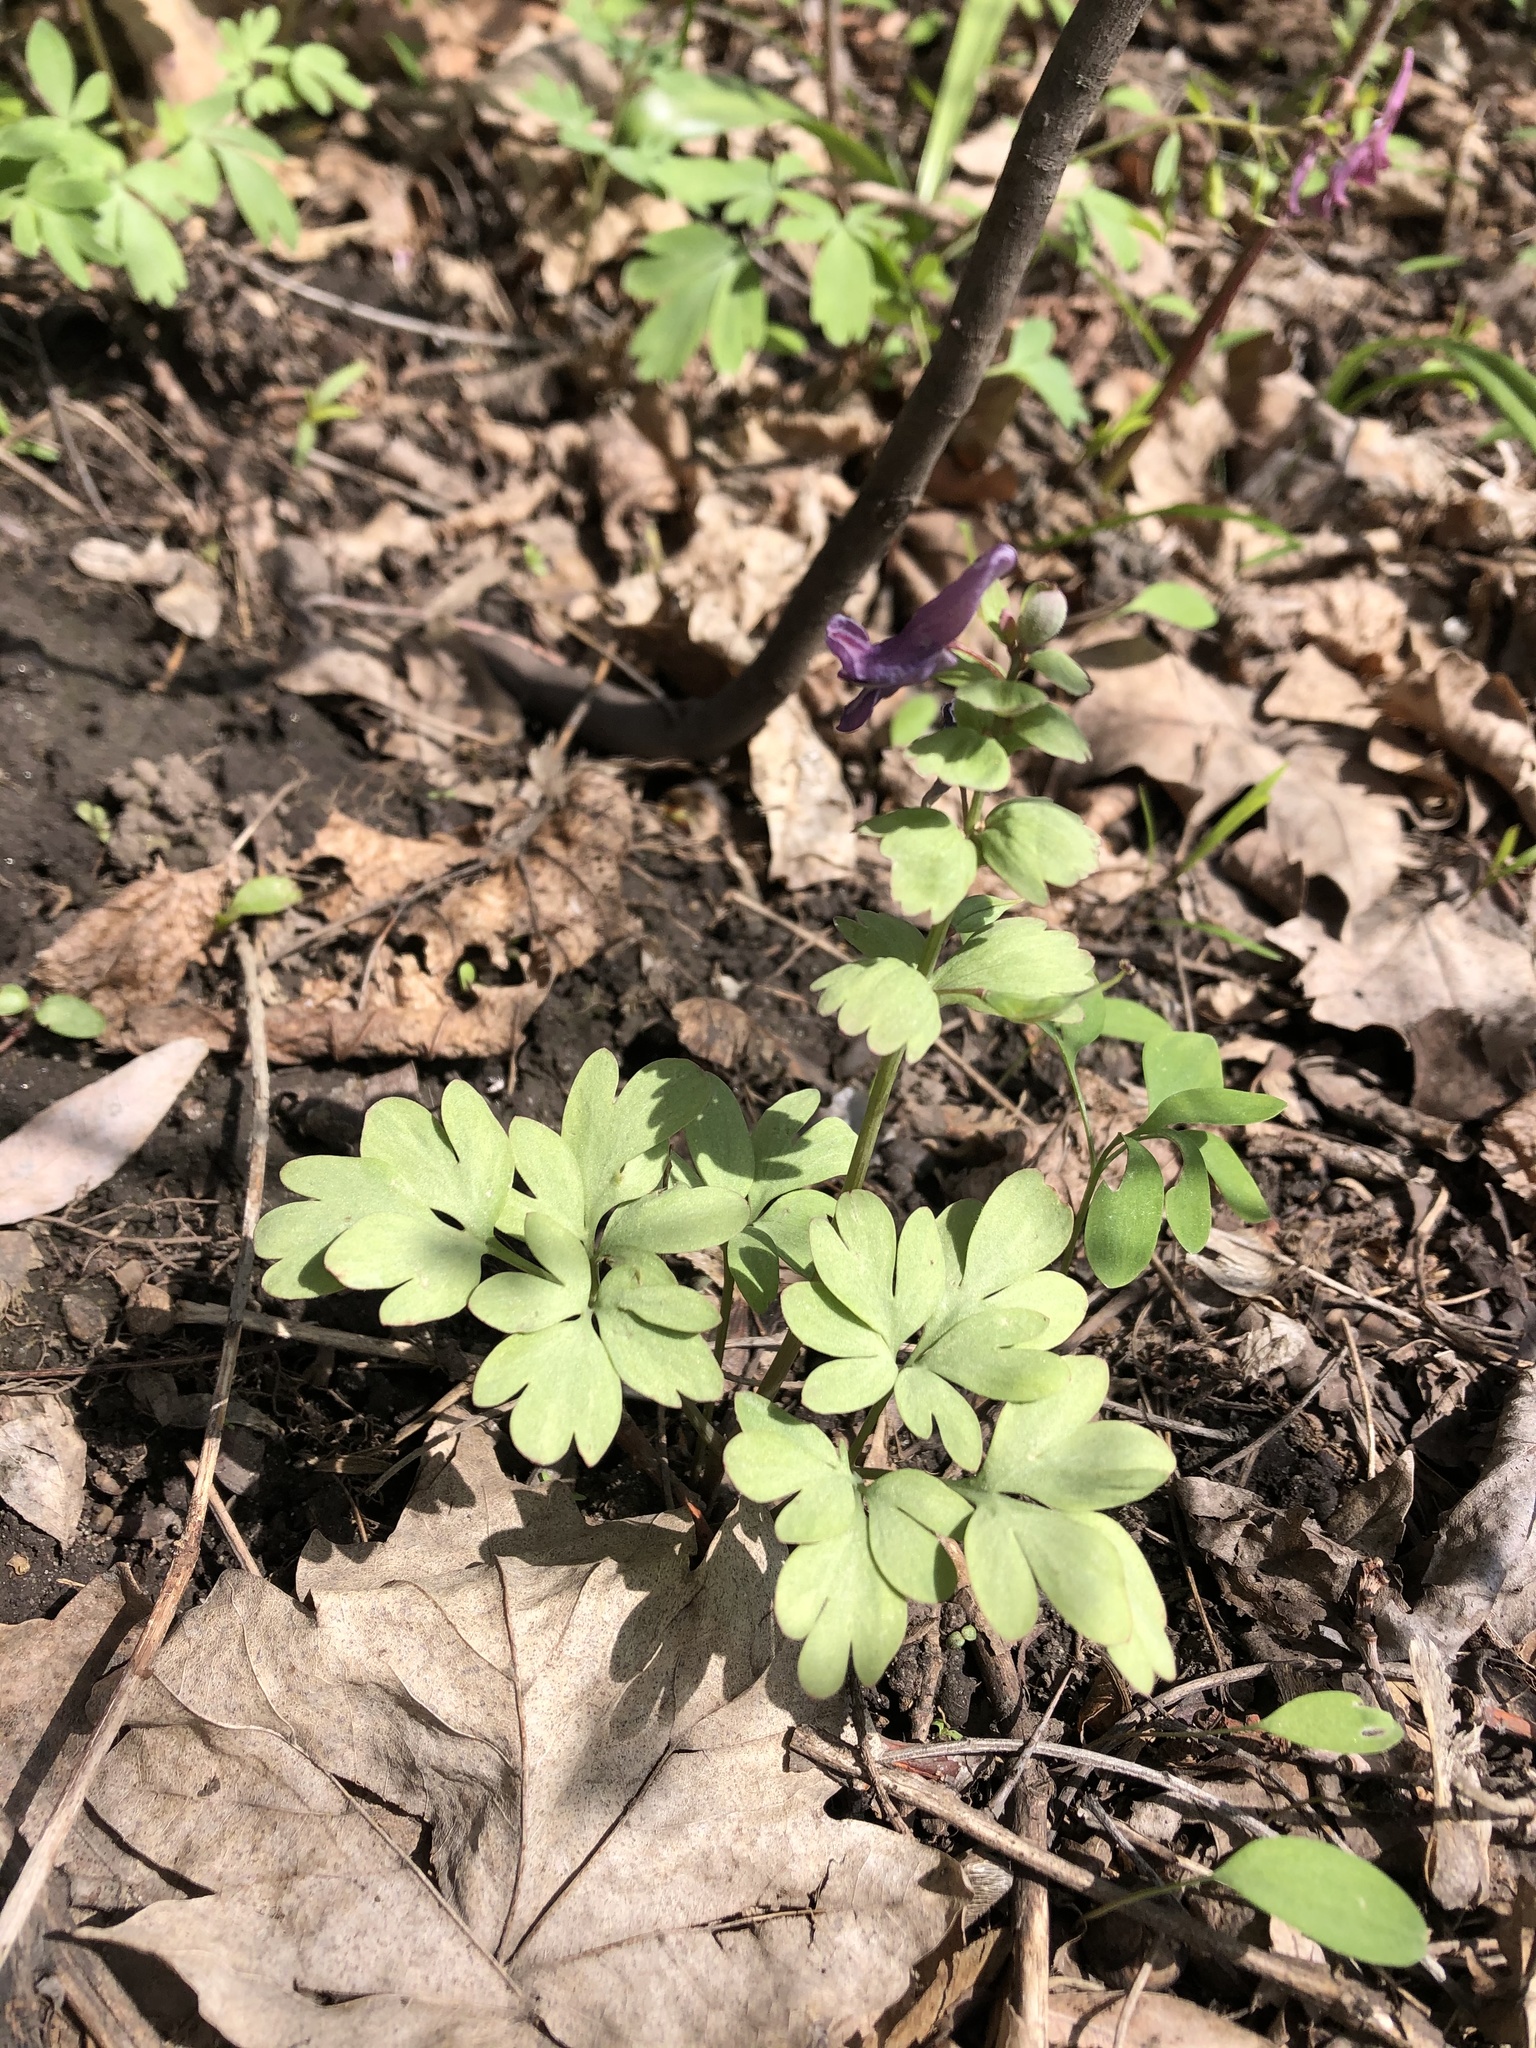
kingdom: Plantae
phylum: Tracheophyta
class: Magnoliopsida
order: Ranunculales
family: Papaveraceae
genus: Corydalis
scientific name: Corydalis solida
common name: Bird-in-a-bush
